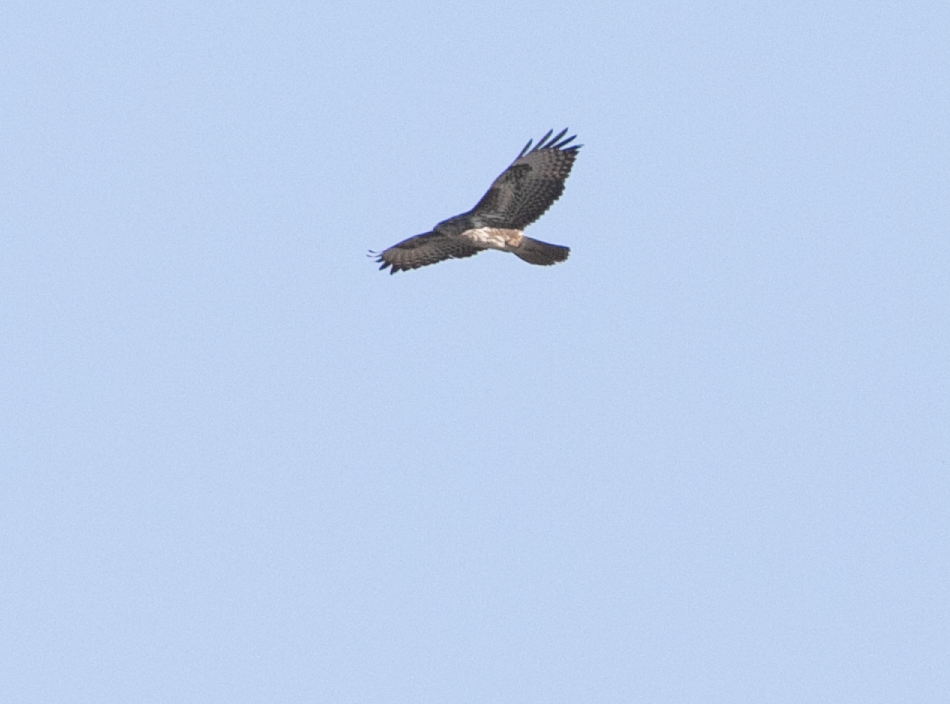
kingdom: Animalia
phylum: Chordata
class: Aves
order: Accipitriformes
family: Accipitridae
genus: Buteo
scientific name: Buteo buteo
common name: Common buzzard
